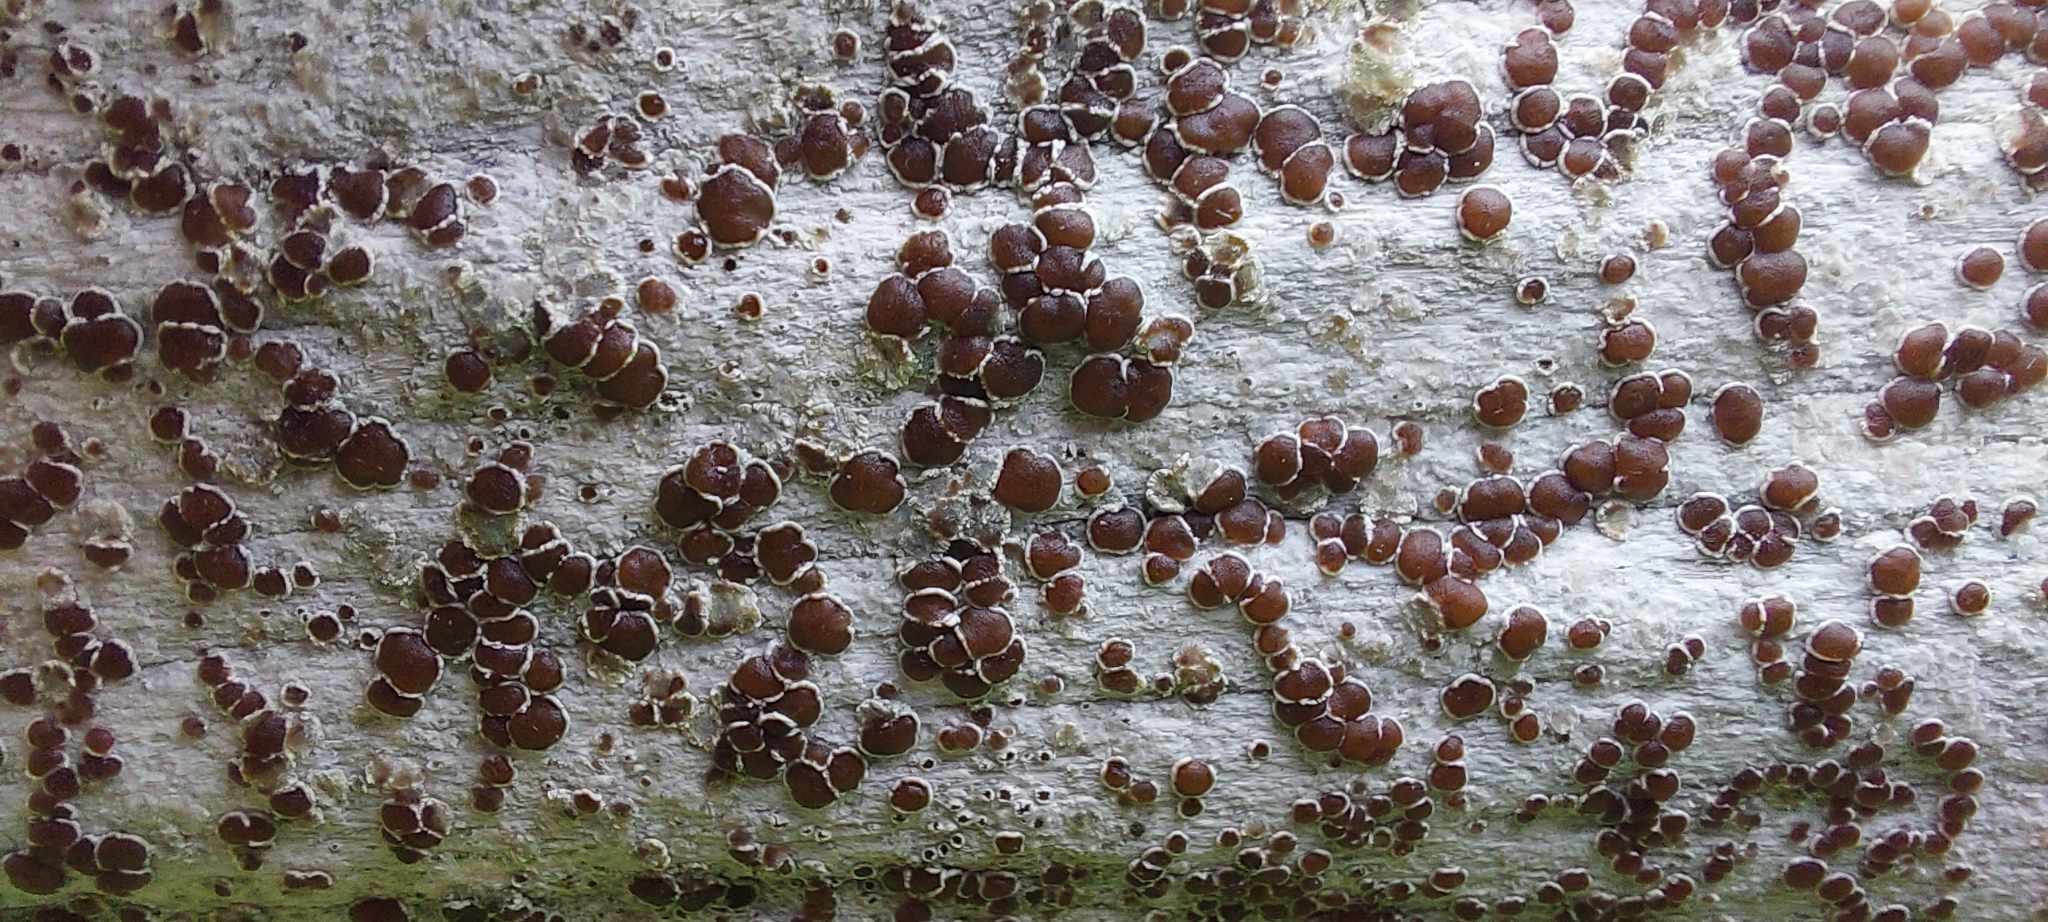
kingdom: Fungi
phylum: Ascomycota
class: Lecanoromycetes
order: Lecanorales
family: Lecanoraceae
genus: Lecanora
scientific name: Lecanora xylophila
